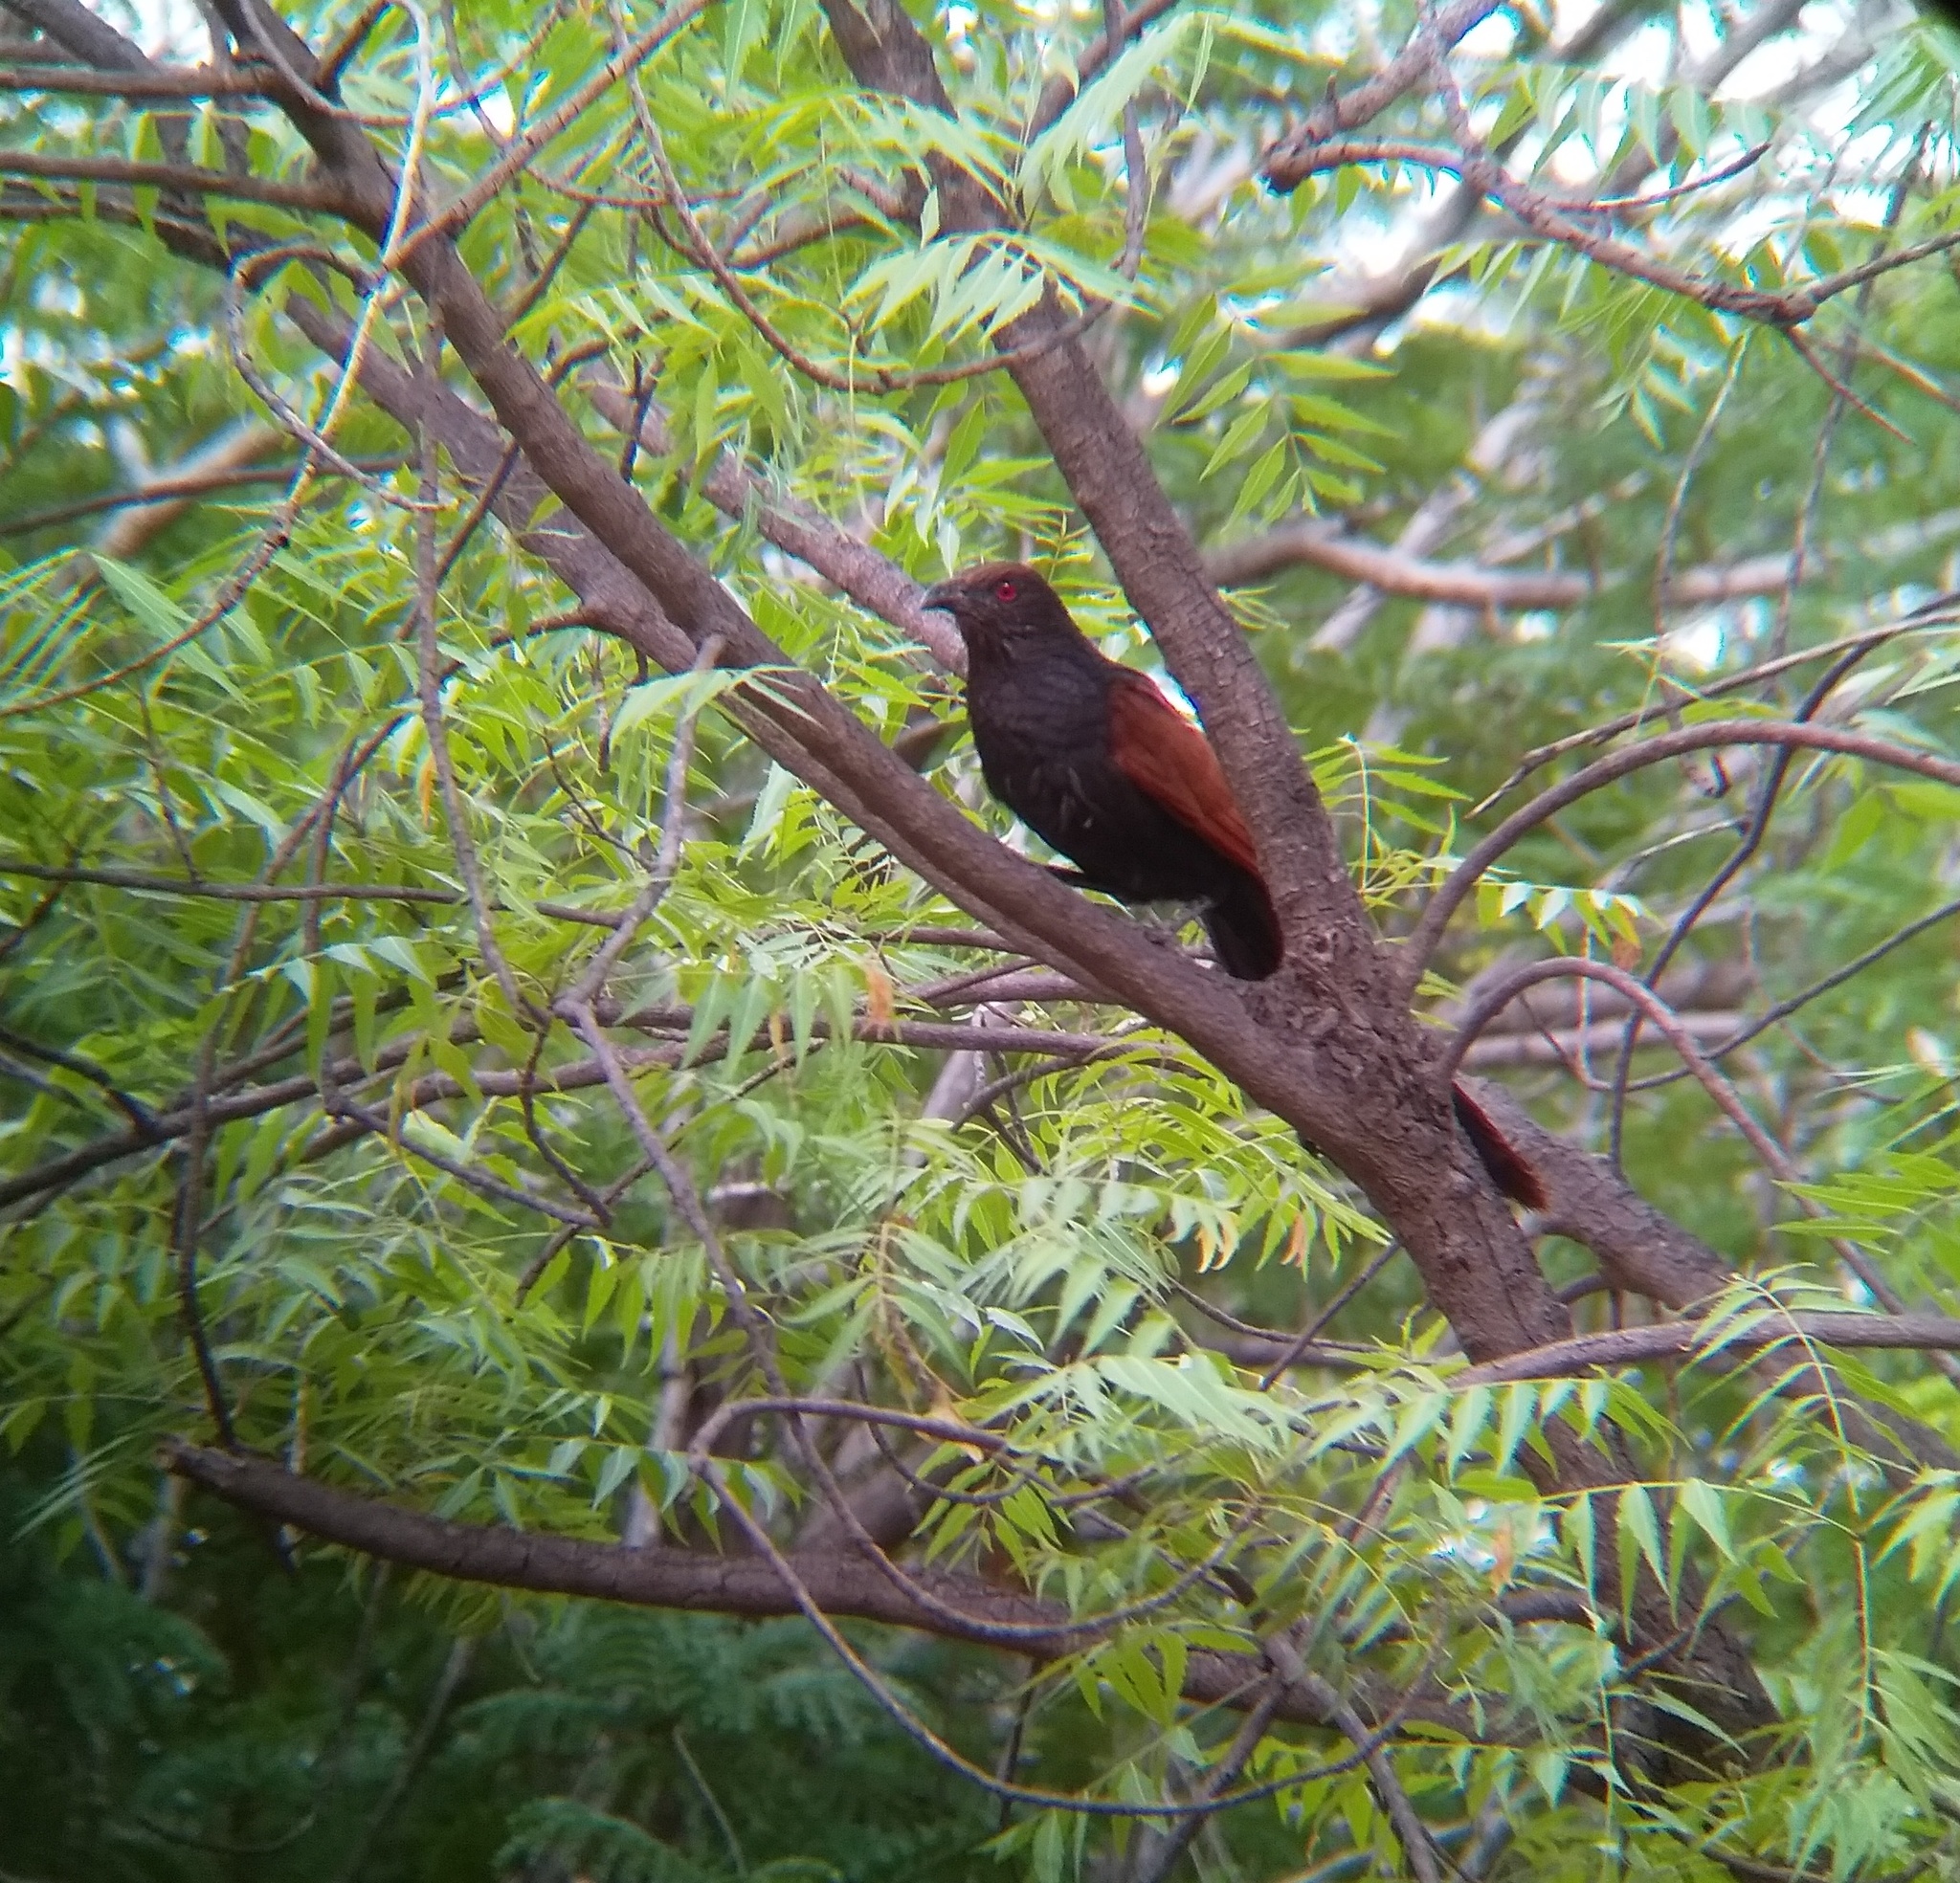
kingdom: Animalia
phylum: Chordata
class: Aves
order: Cuculiformes
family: Cuculidae
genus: Centropus
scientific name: Centropus sinensis
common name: Greater coucal
